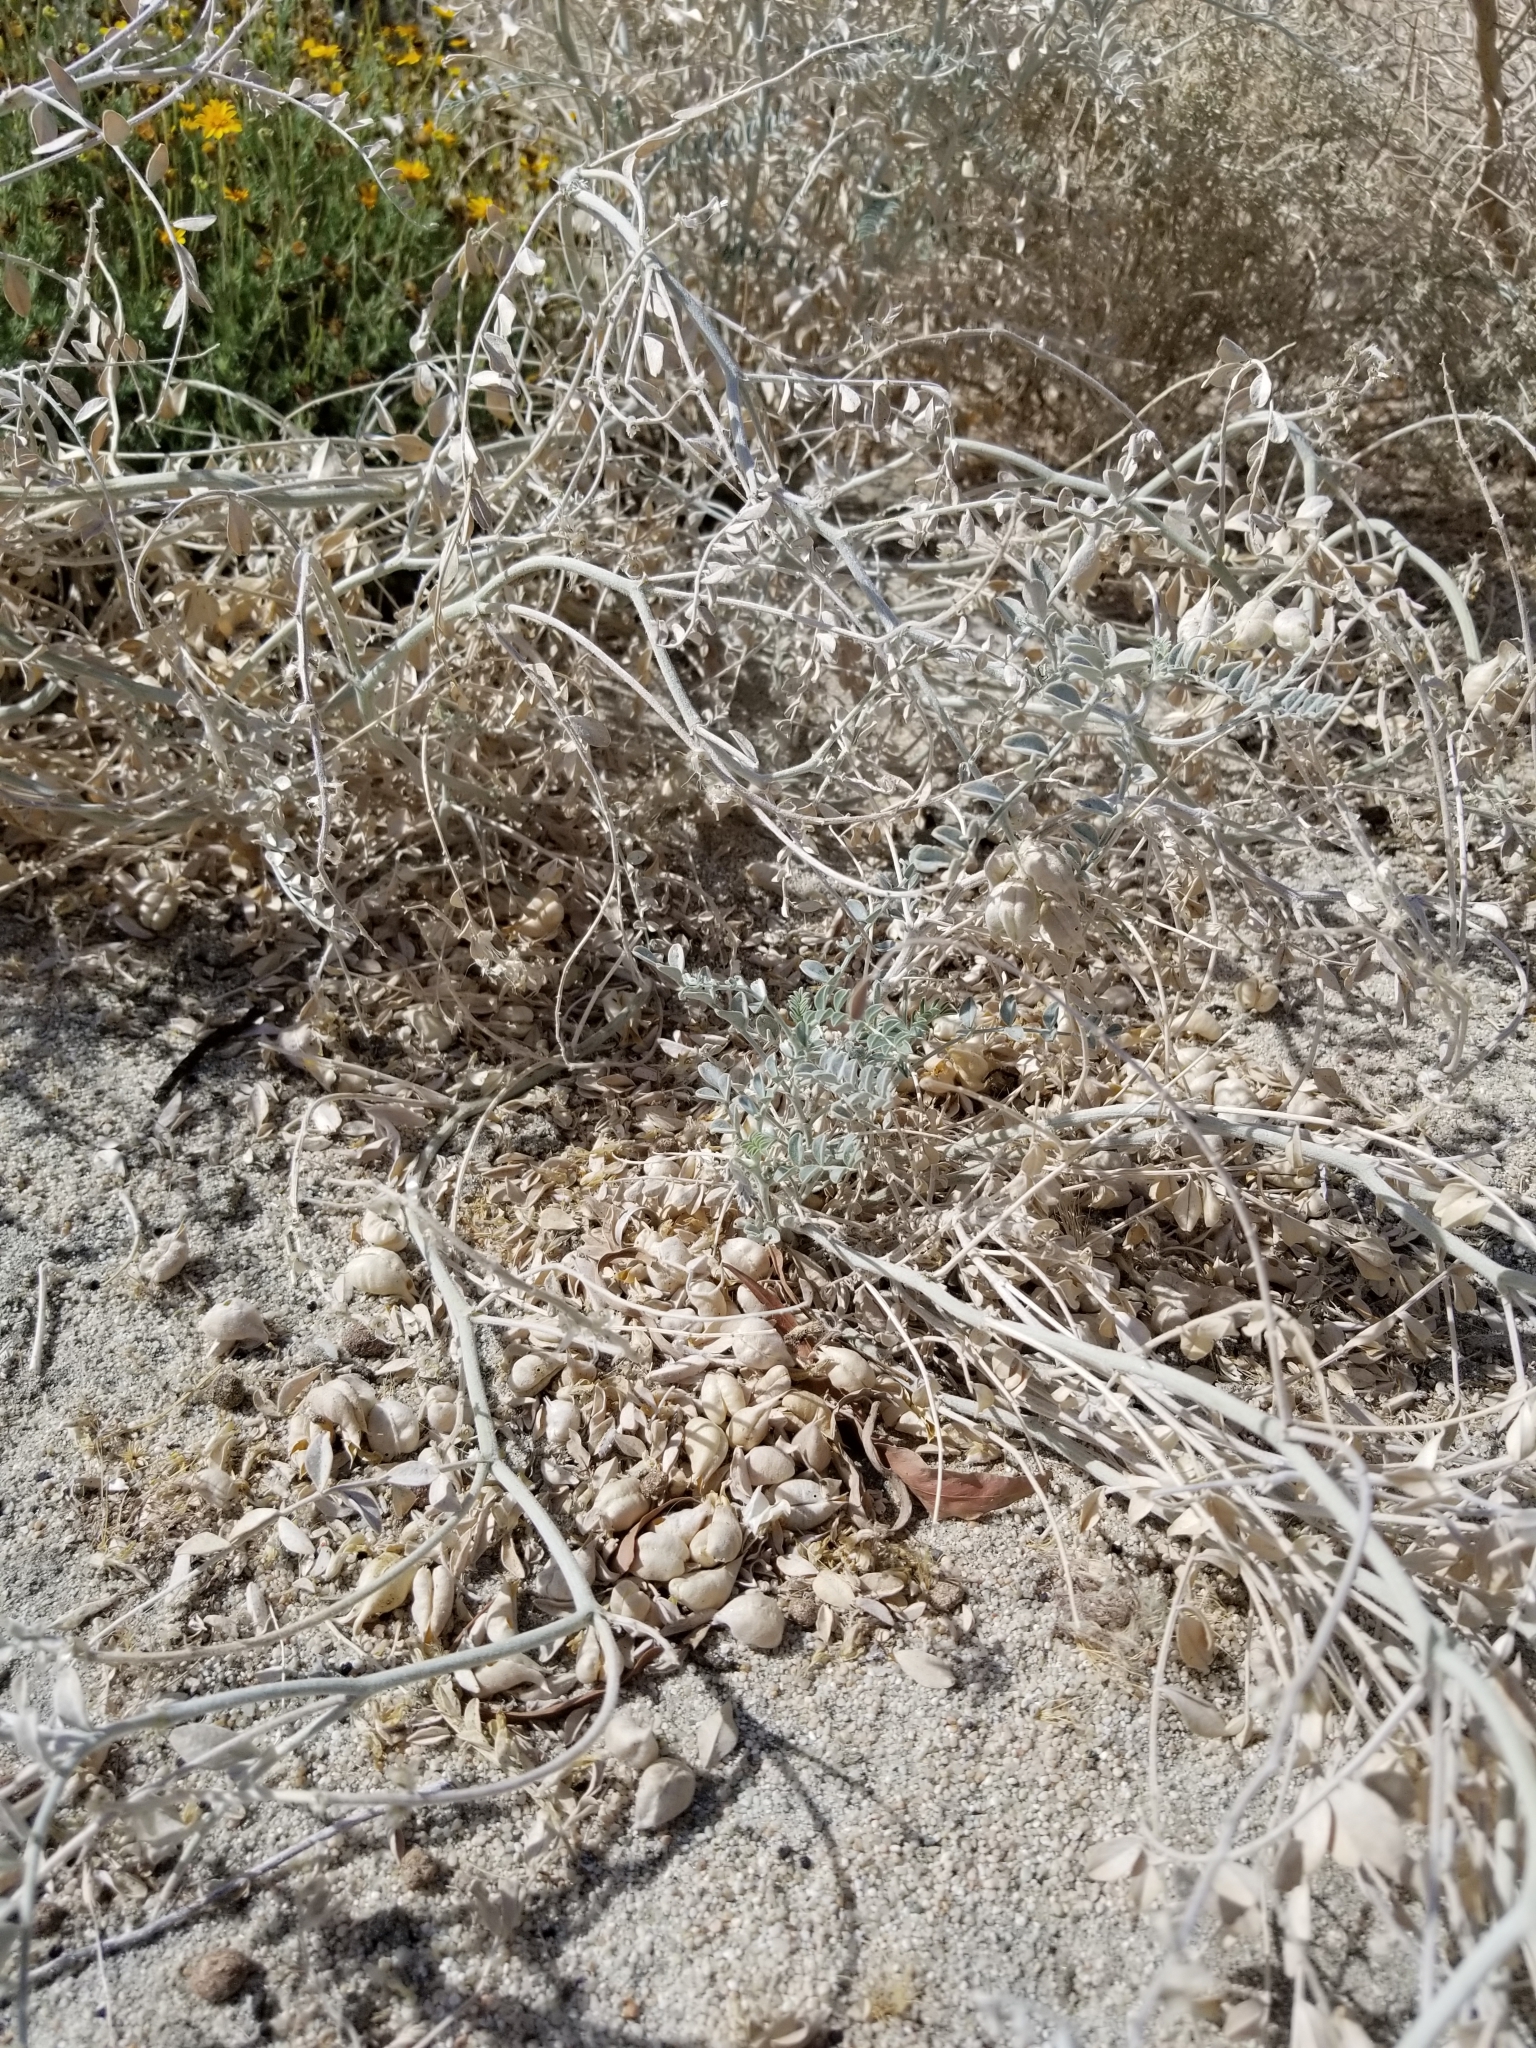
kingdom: Plantae
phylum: Tracheophyta
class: Magnoliopsida
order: Fabales
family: Fabaceae
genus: Astragalus
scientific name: Astragalus lentiginosus
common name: Freckled milkvetch
